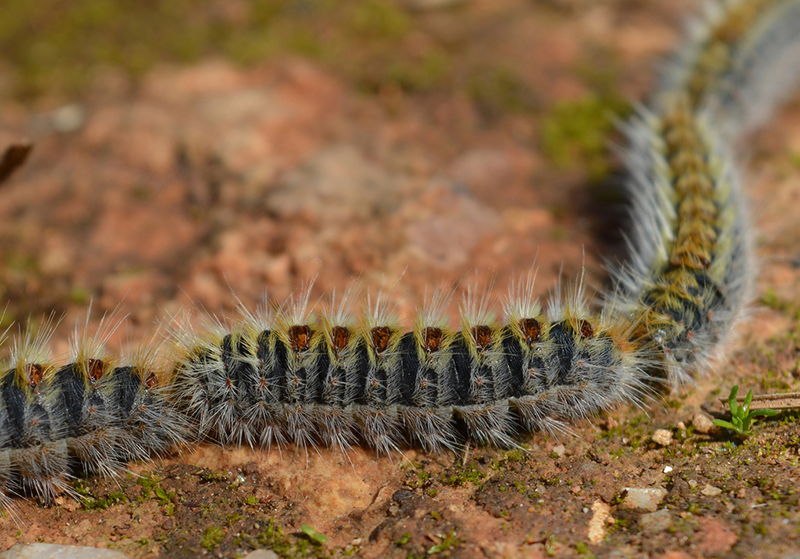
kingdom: Animalia
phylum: Arthropoda
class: Insecta
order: Lepidoptera
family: Notodontidae
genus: Thaumetopoea
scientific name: Thaumetopoea pityocampa
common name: Pine processionary
